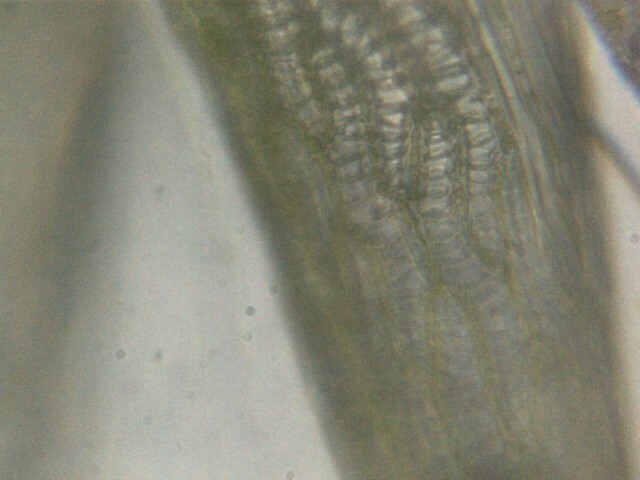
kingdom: Plantae
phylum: Bryophyta
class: Sphagnopsida
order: Sphagnales
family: Sphagnaceae
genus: Sphagnum
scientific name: Sphagnum cuspidatum
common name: Feathery peat moss
